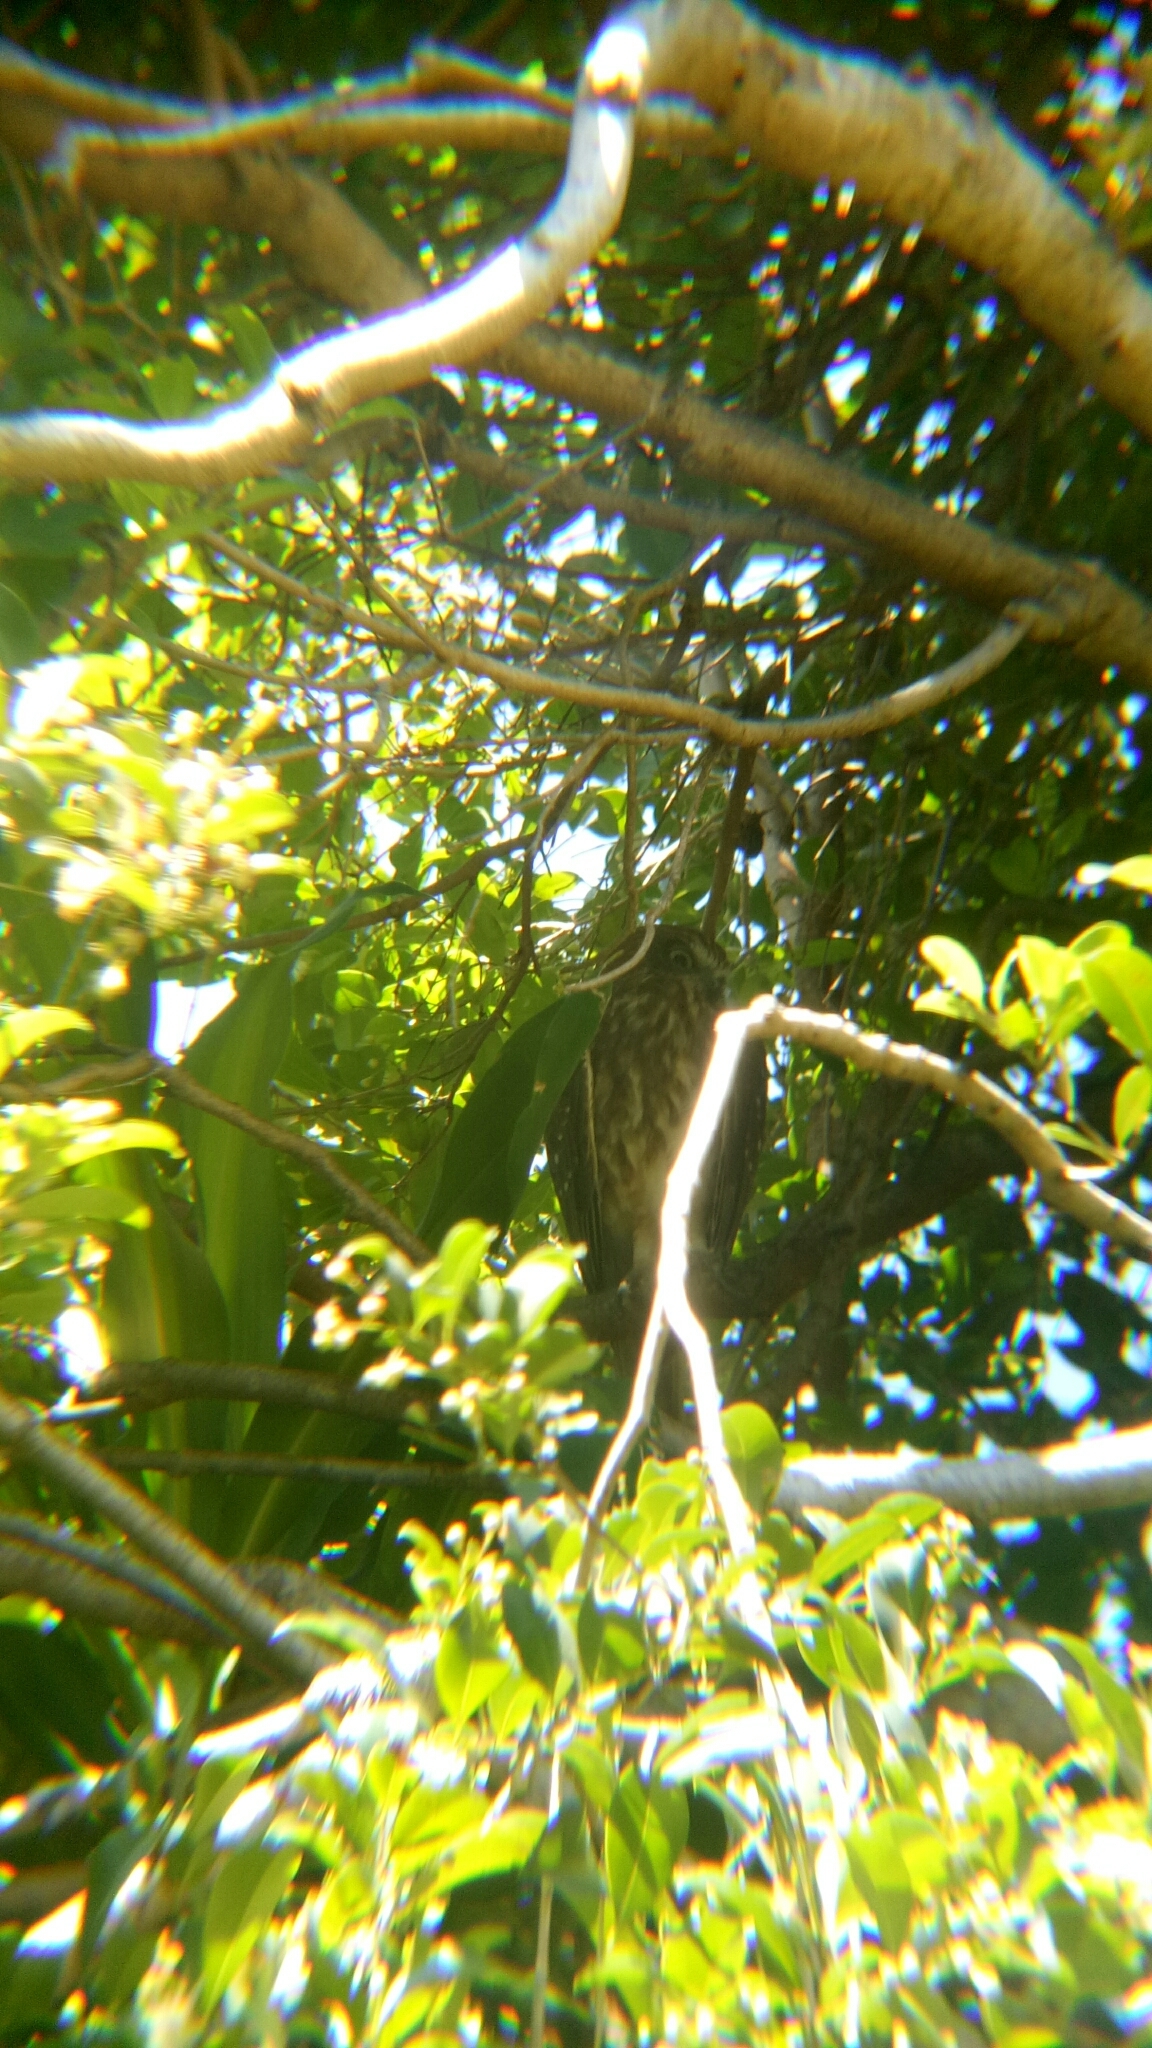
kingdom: Animalia
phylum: Chordata
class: Aves
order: Strigiformes
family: Strigidae
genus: Ninox
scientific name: Ninox boobook
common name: Southern boobook
